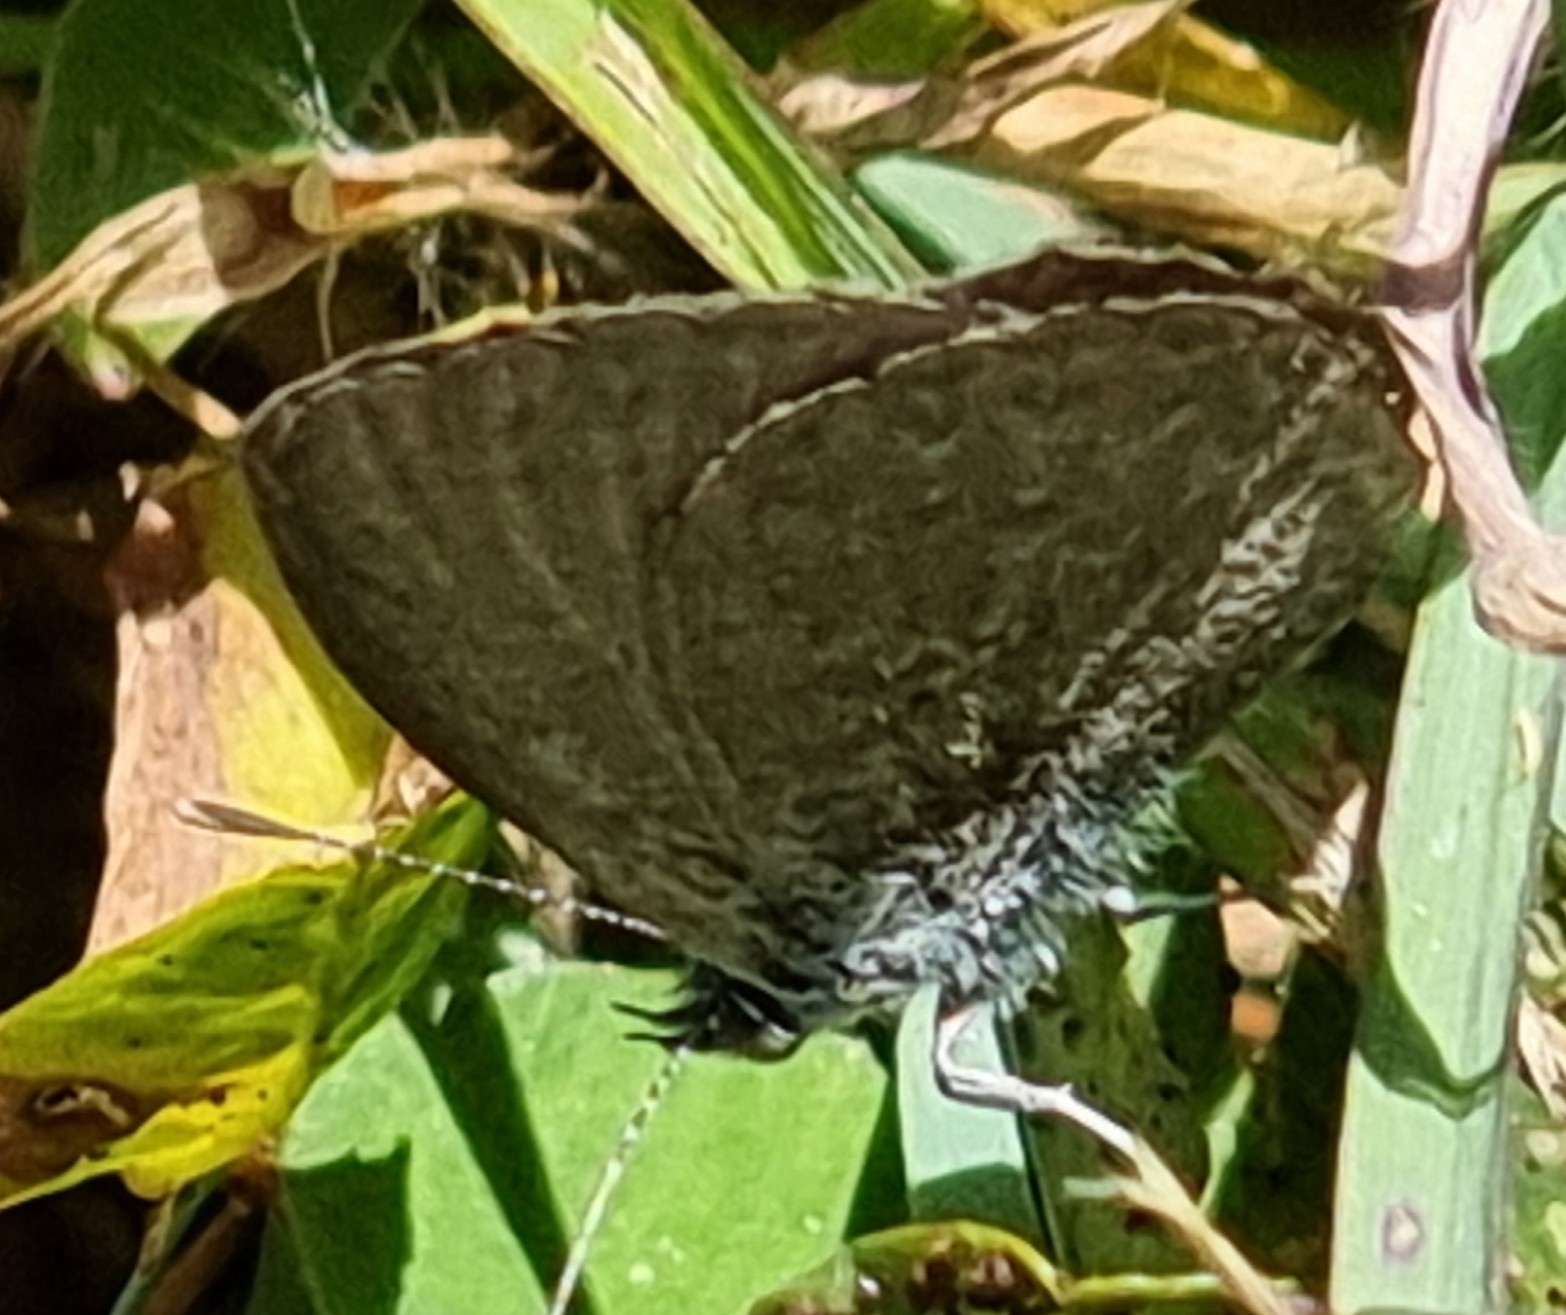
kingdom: Animalia
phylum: Arthropoda
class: Insecta
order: Lepidoptera
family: Lycaenidae
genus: Zizina
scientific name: Zizina otis
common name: Lesser grass blue
